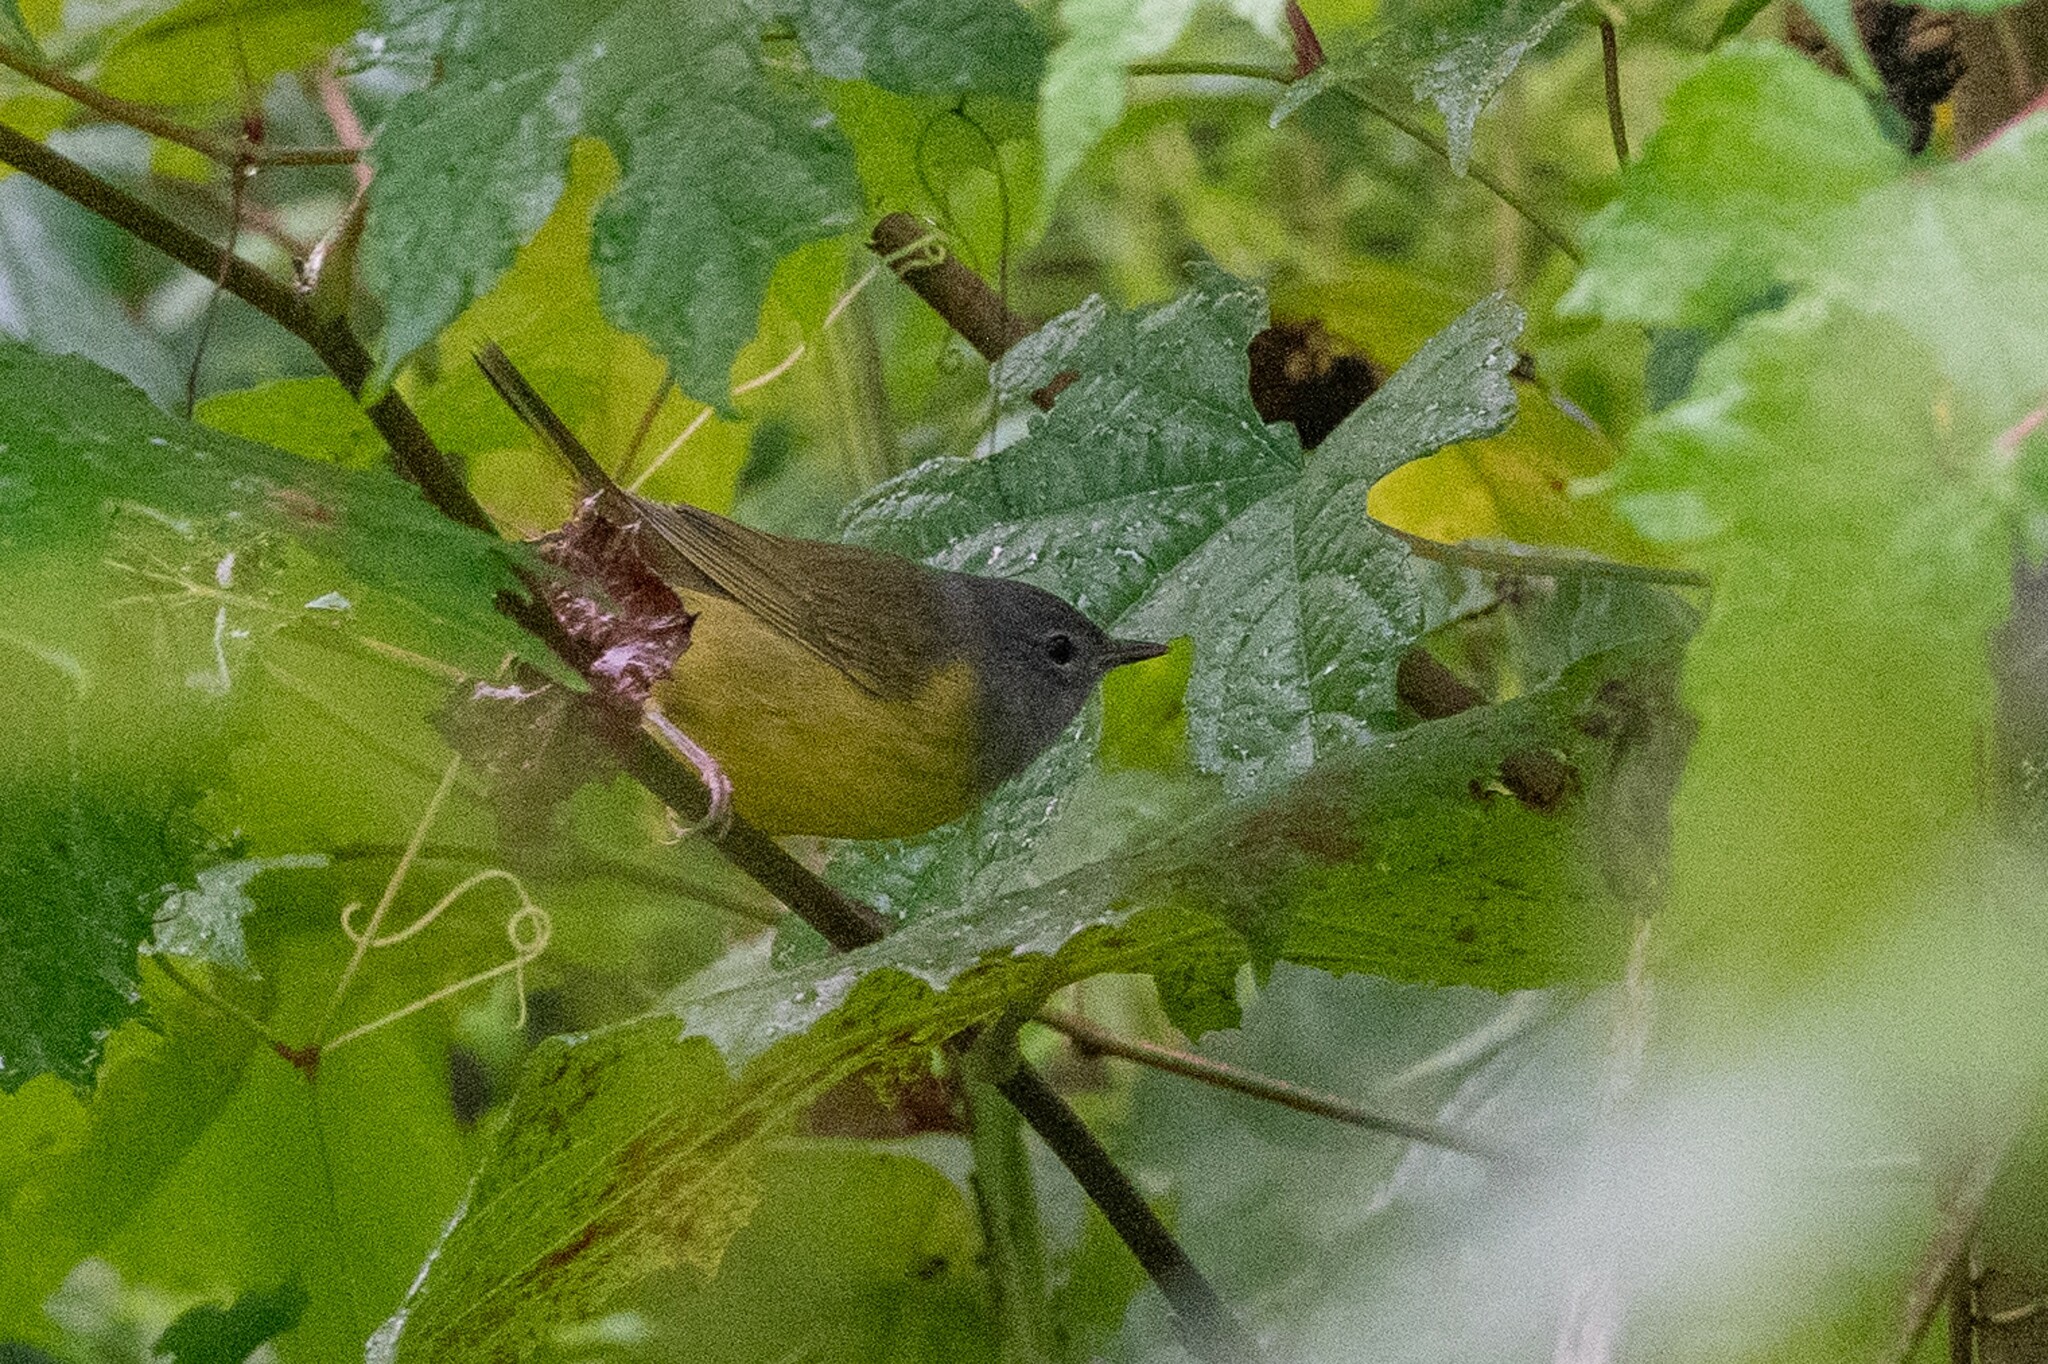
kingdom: Animalia
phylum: Chordata
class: Aves
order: Passeriformes
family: Parulidae
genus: Geothlypis
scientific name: Geothlypis philadelphia
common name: Mourning warbler
